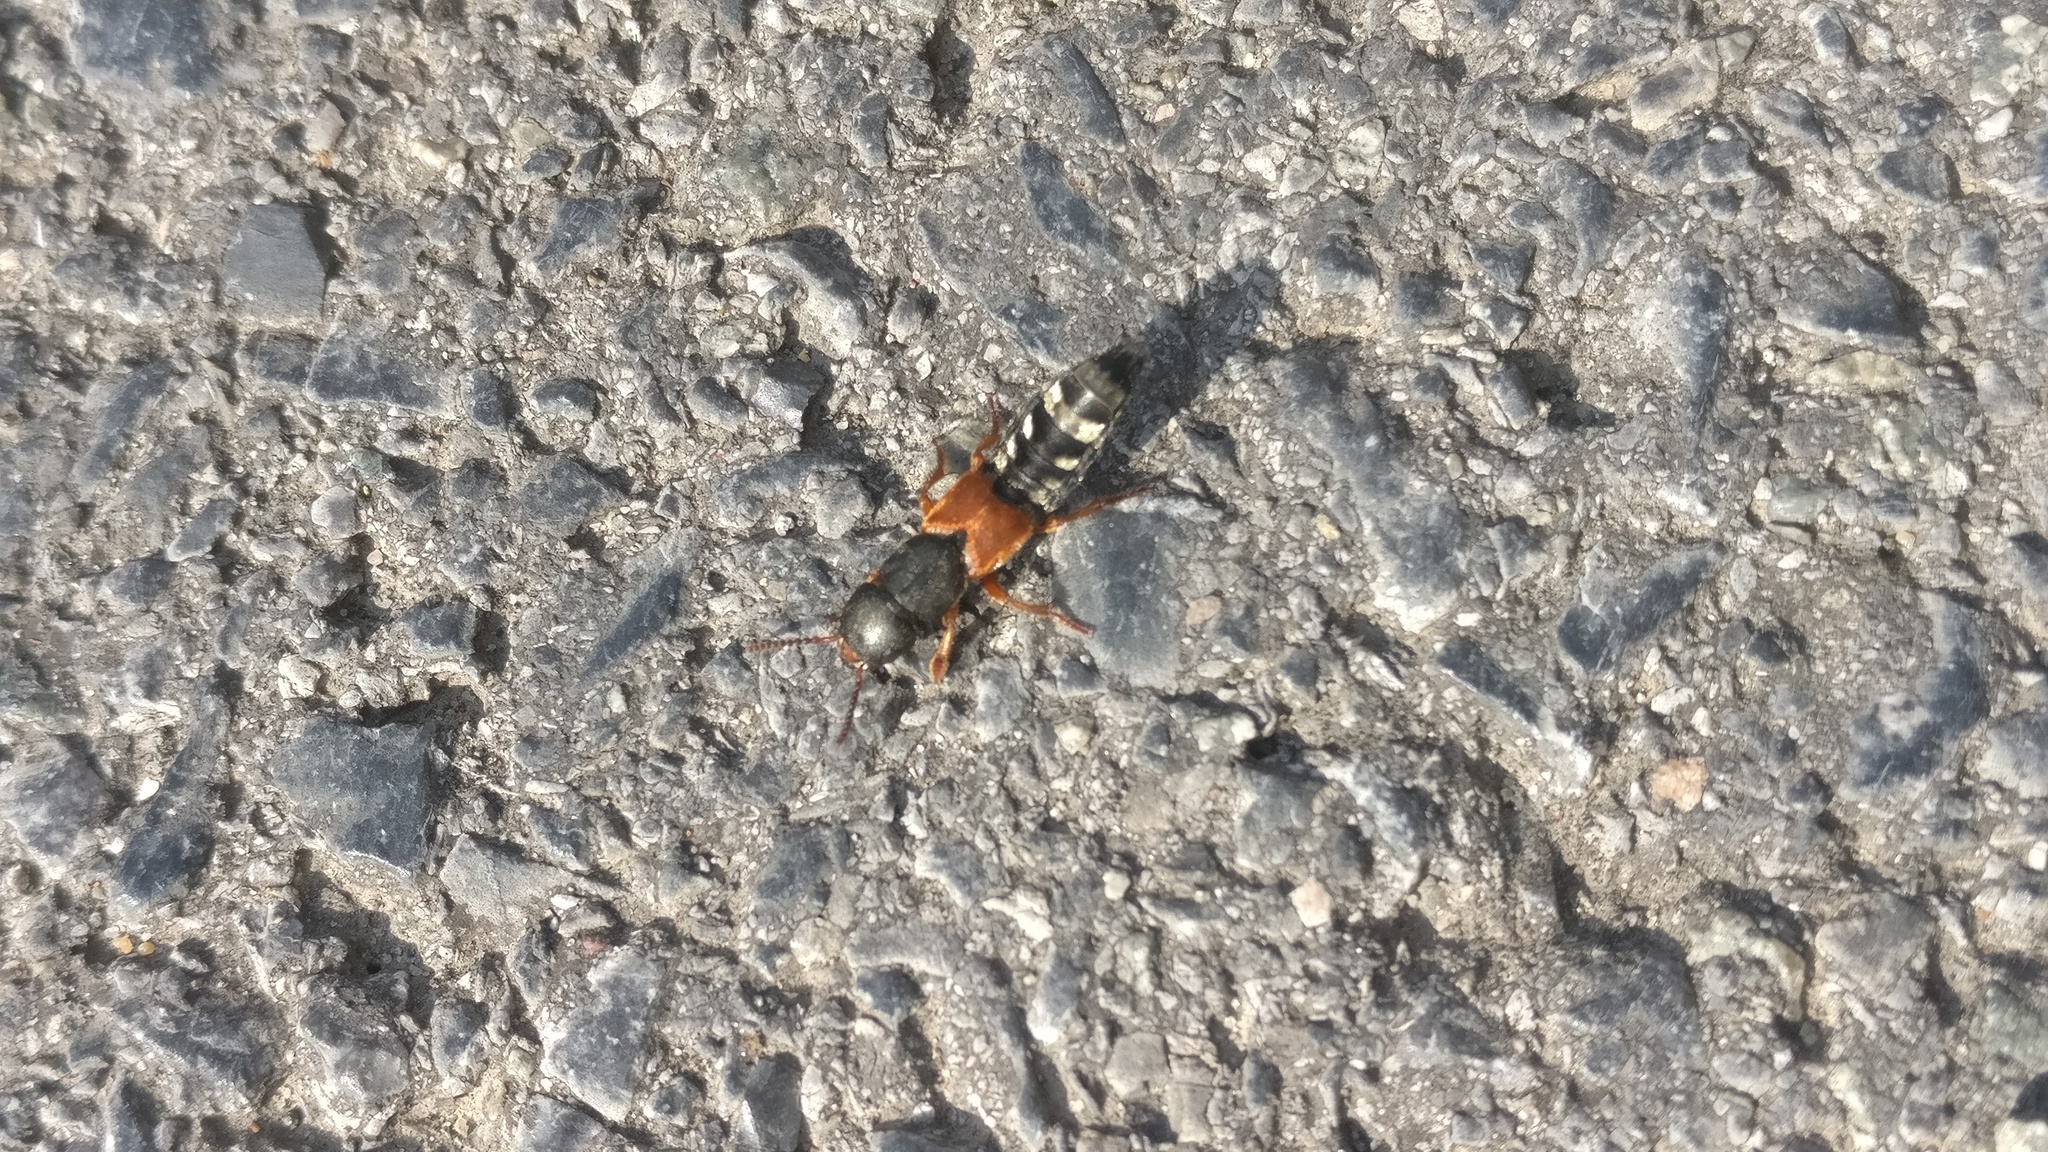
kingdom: Animalia
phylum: Arthropoda
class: Insecta
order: Coleoptera
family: Staphylinidae
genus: Platydracus
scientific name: Platydracus stercorarius
